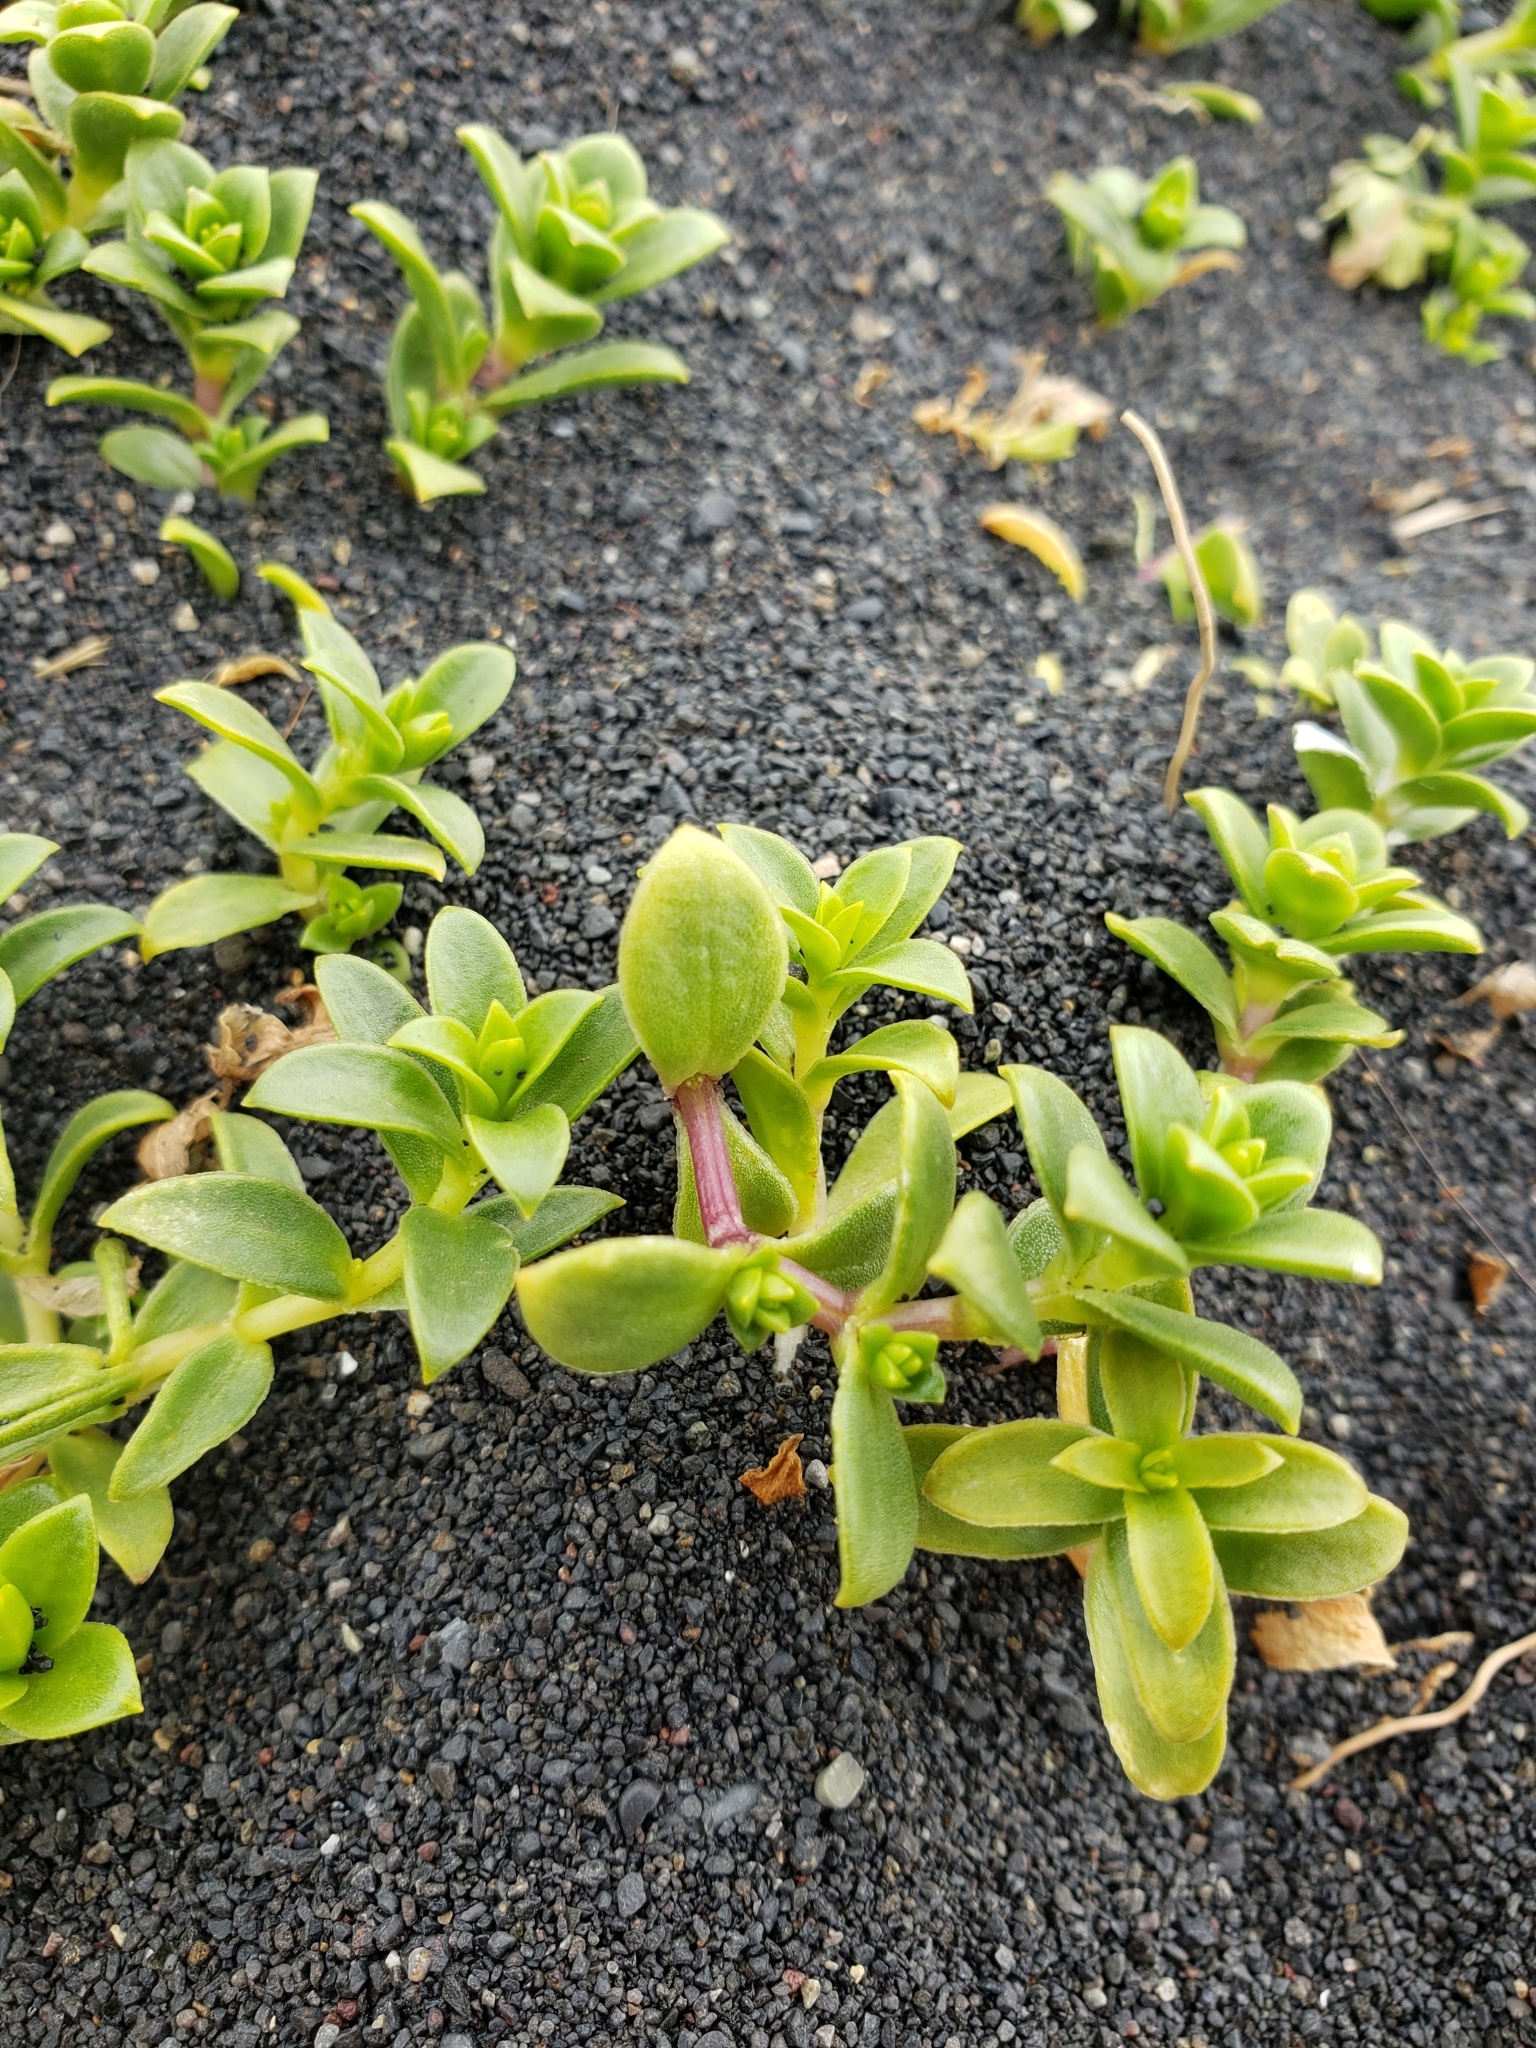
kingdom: Plantae
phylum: Tracheophyta
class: Magnoliopsida
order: Caryophyllales
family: Caryophyllaceae
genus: Honckenya
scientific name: Honckenya peploides
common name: Sea sandwort
